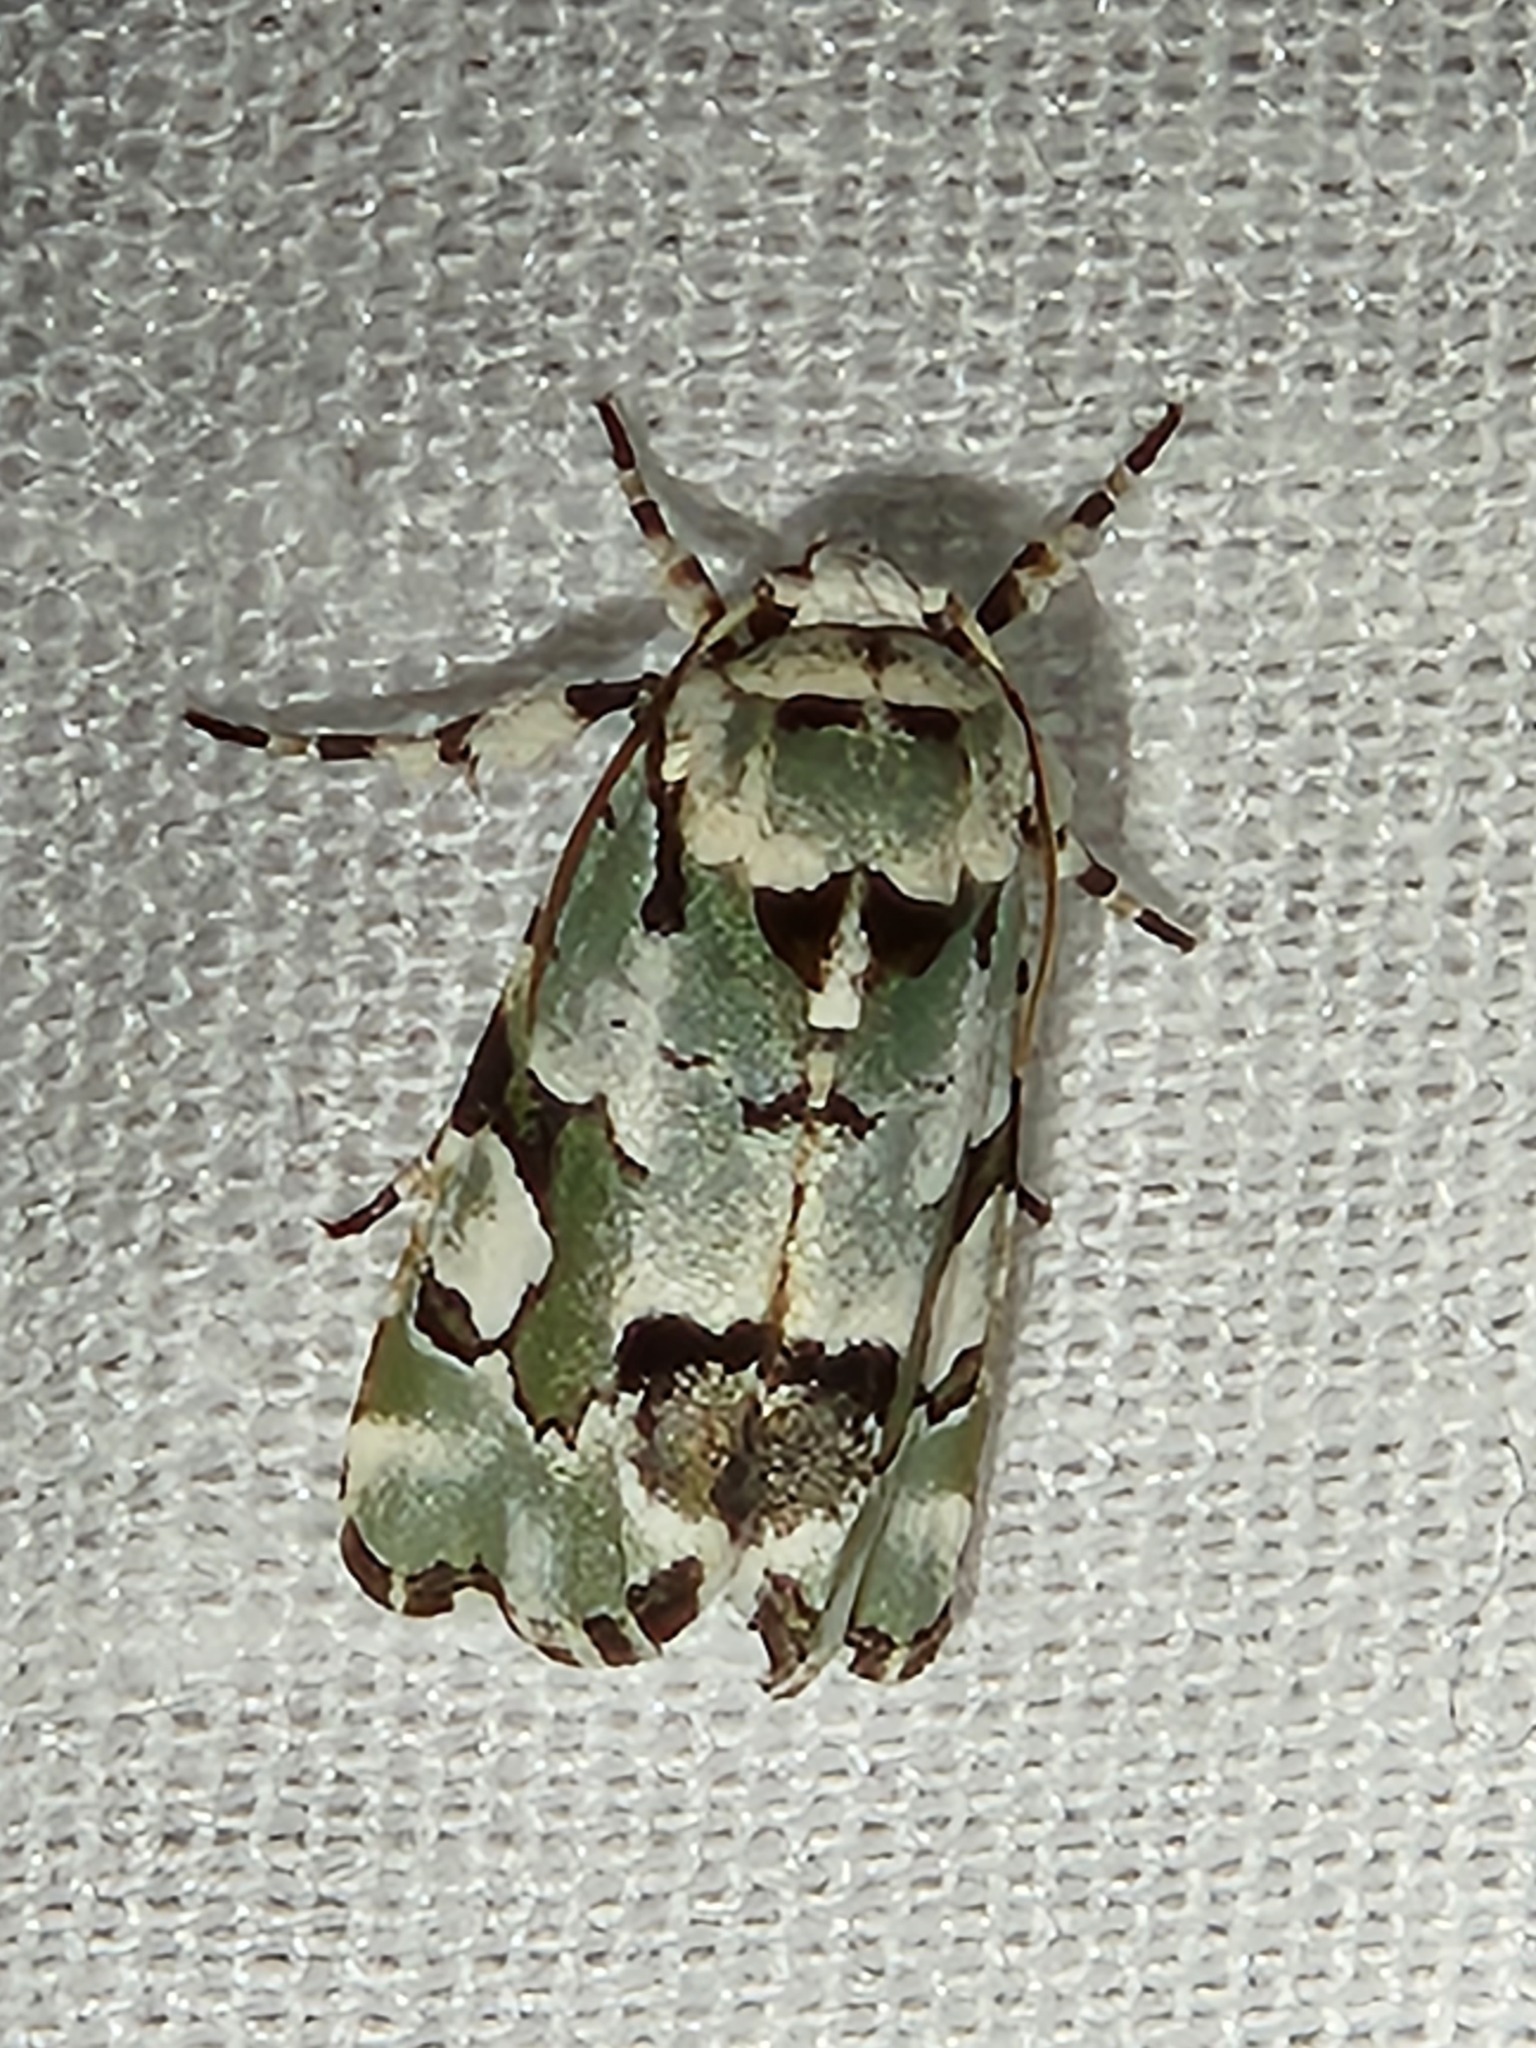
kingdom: Animalia
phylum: Arthropoda
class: Insecta
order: Lepidoptera
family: Noctuidae
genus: Emarginea
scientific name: Emarginea percara
